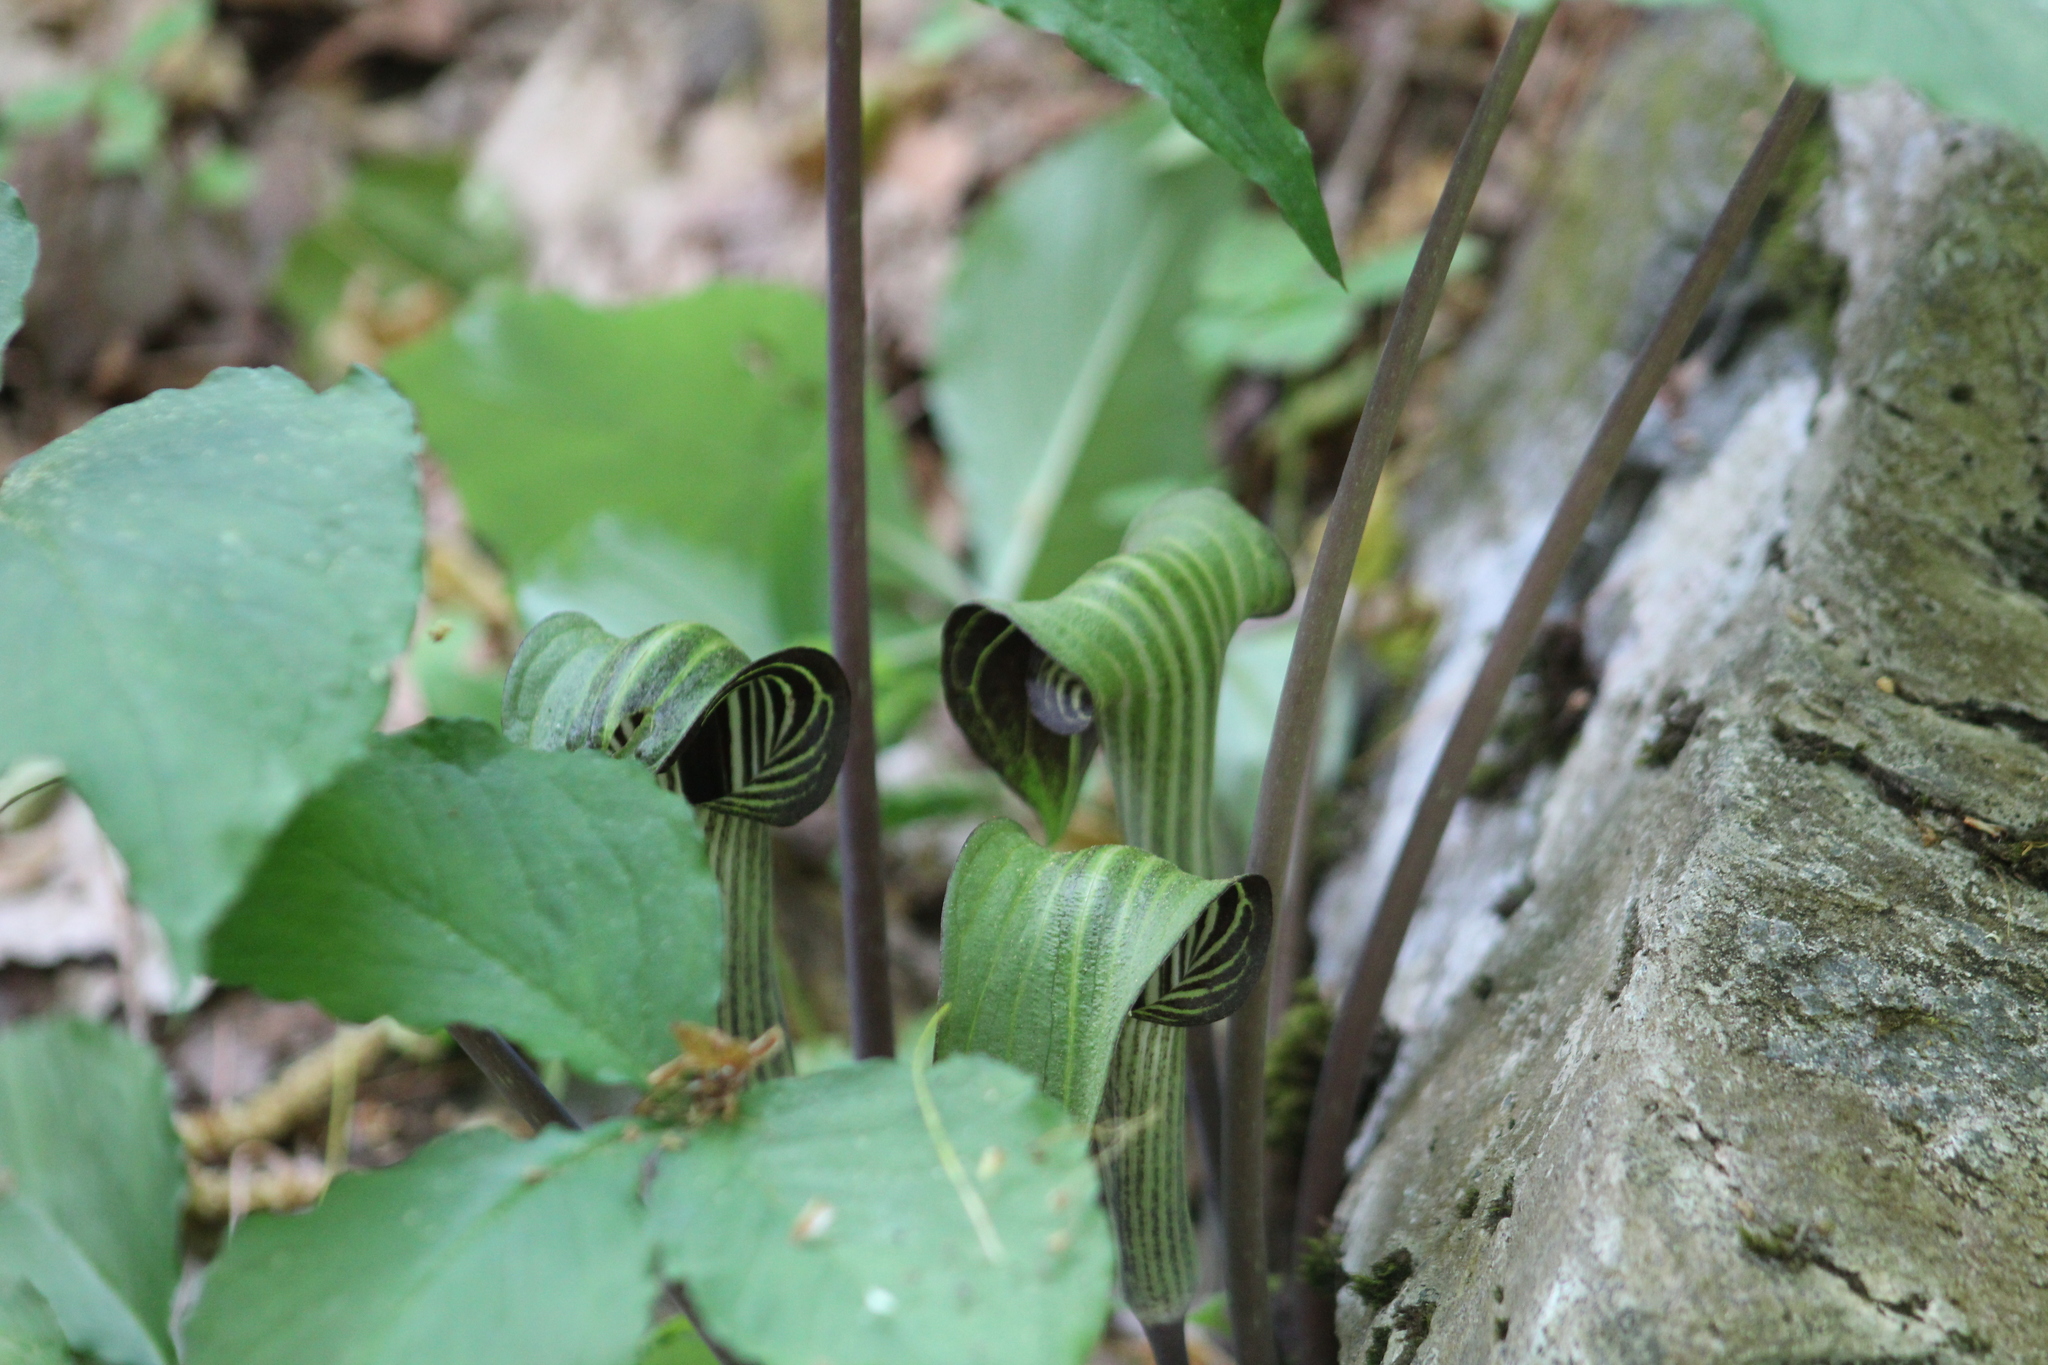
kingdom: Plantae
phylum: Tracheophyta
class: Liliopsida
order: Alismatales
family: Araceae
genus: Arisaema
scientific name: Arisaema triphyllum
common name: Jack-in-the-pulpit
